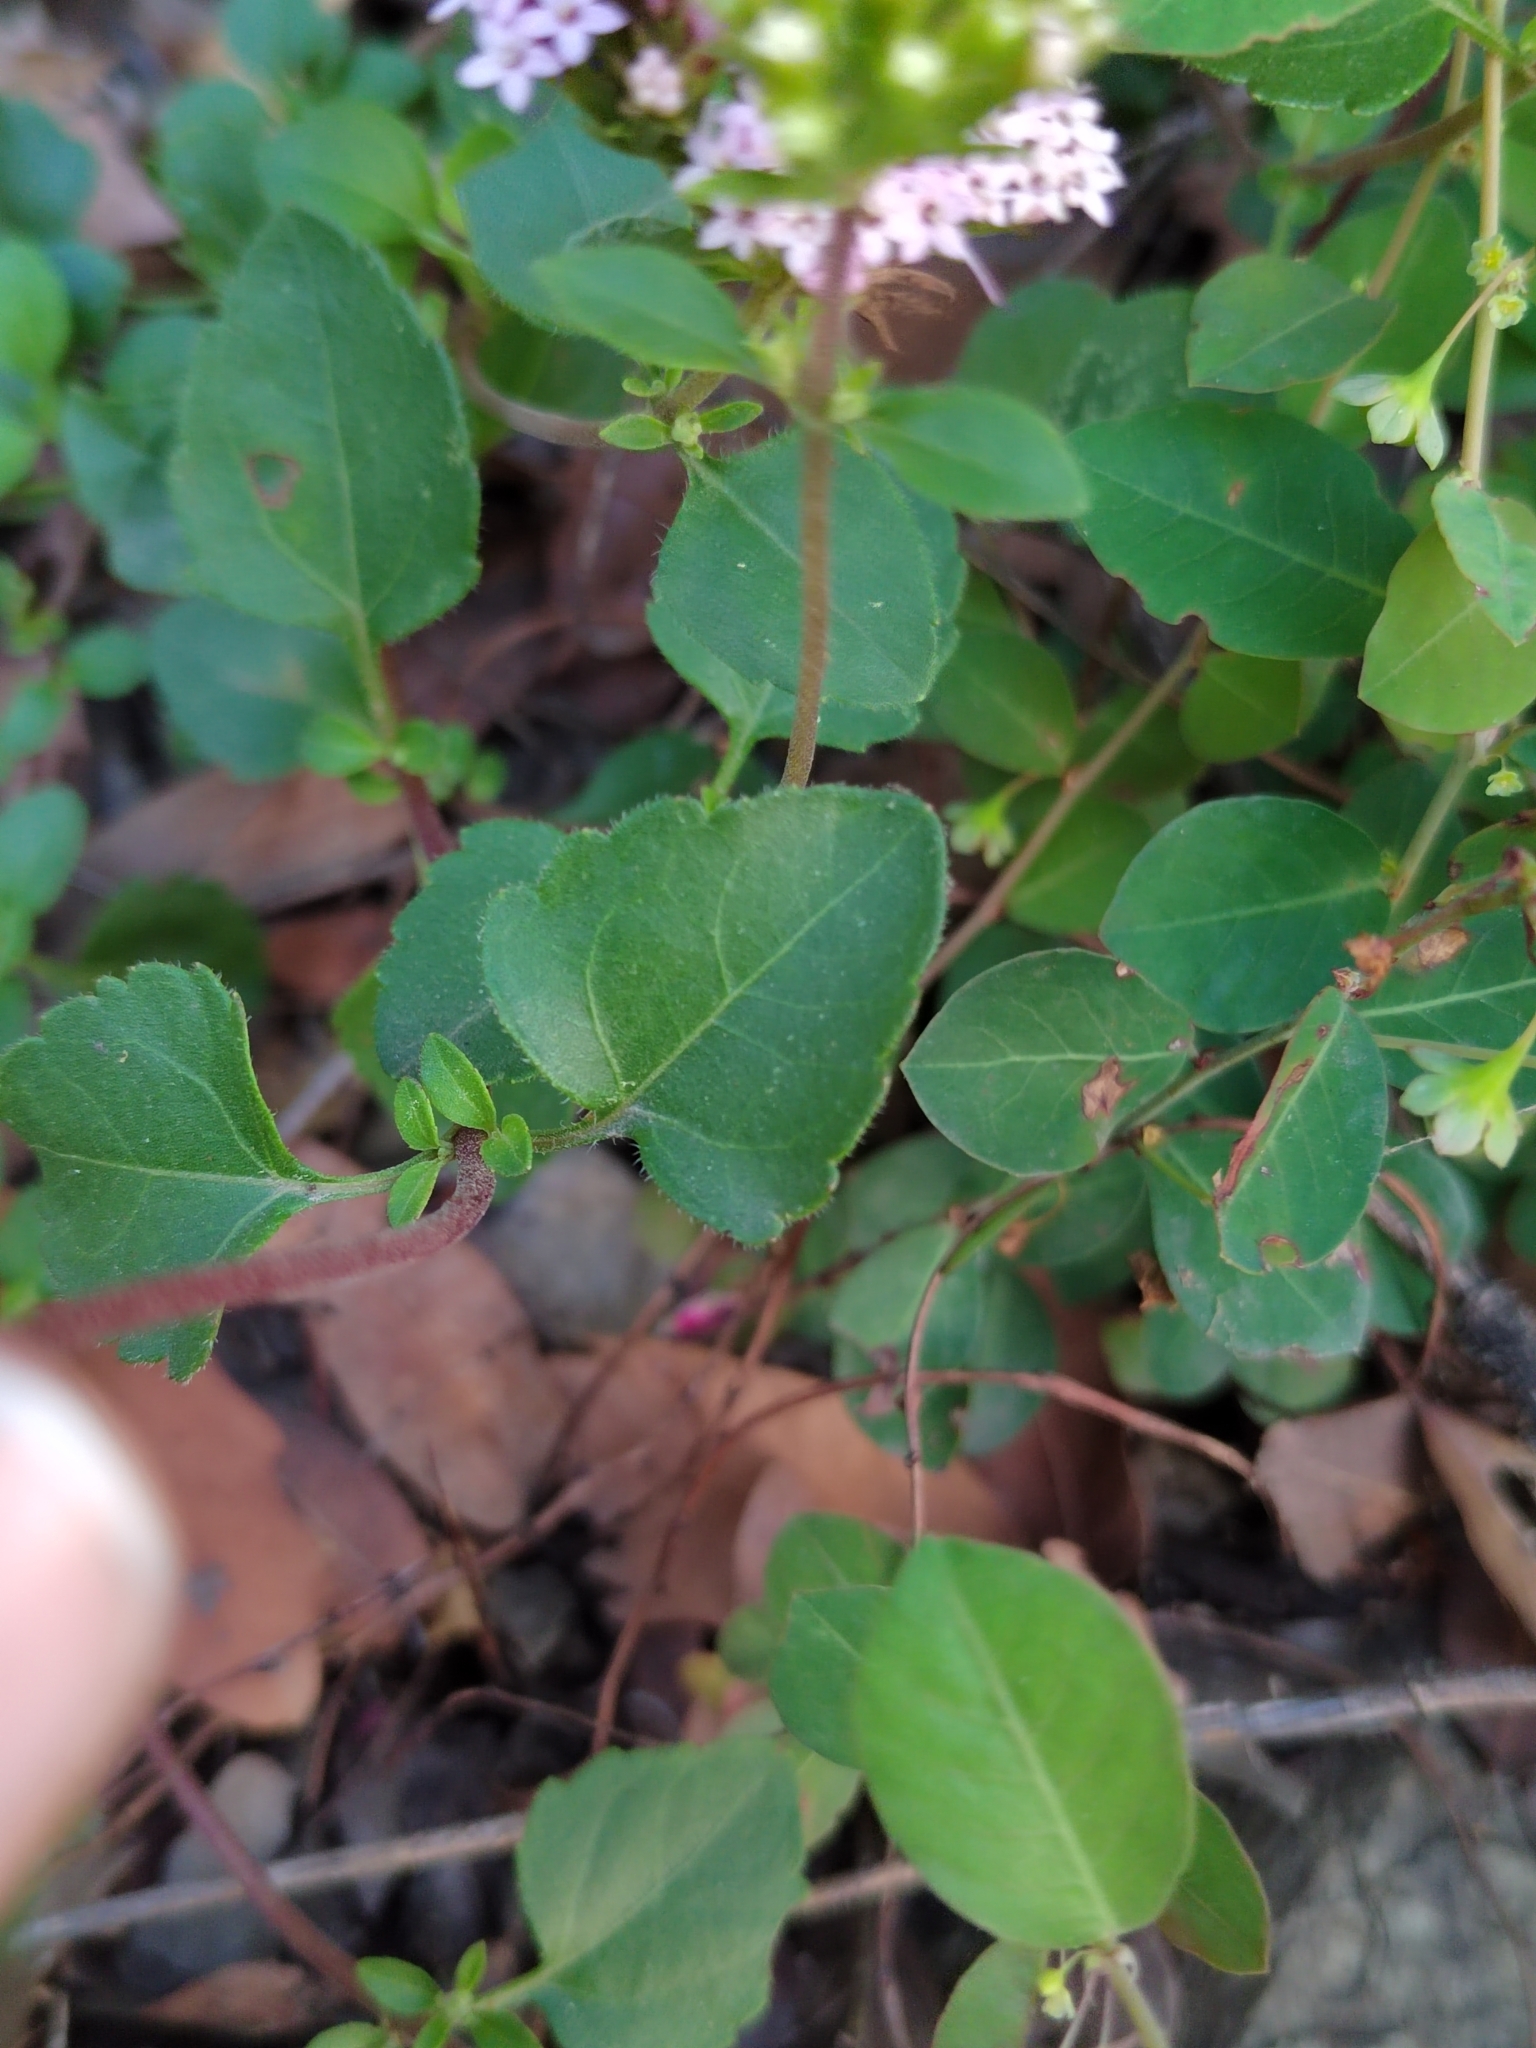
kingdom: Plantae
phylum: Tracheophyta
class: Magnoliopsida
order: Asterales
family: Asteraceae
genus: Stevia
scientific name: Stevia berlandieri
